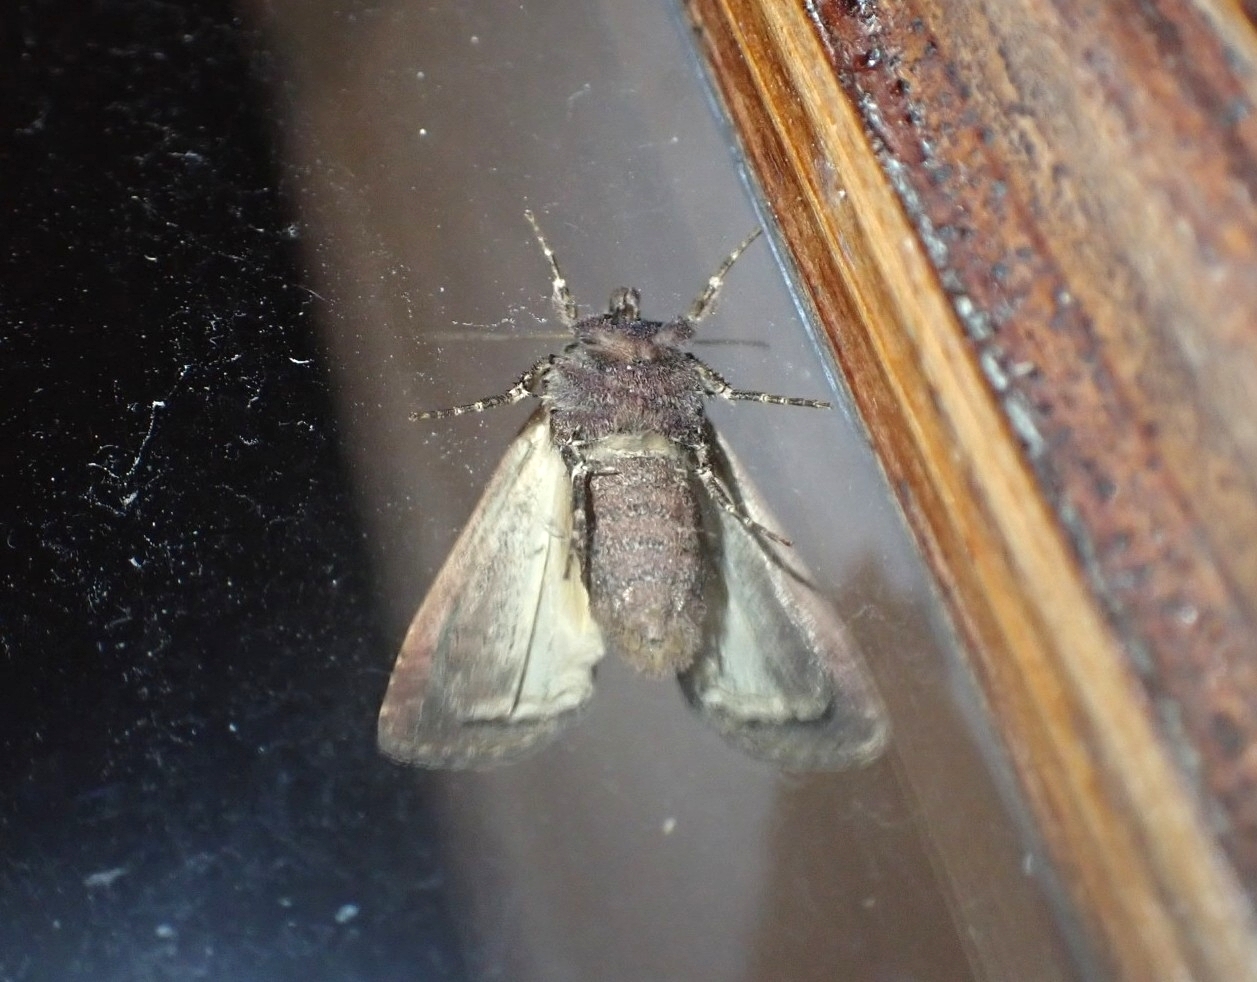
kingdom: Animalia
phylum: Arthropoda
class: Insecta
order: Lepidoptera
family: Noctuidae
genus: Xestia
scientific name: Xestia c-nigrum
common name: Setaceous hebrew character
